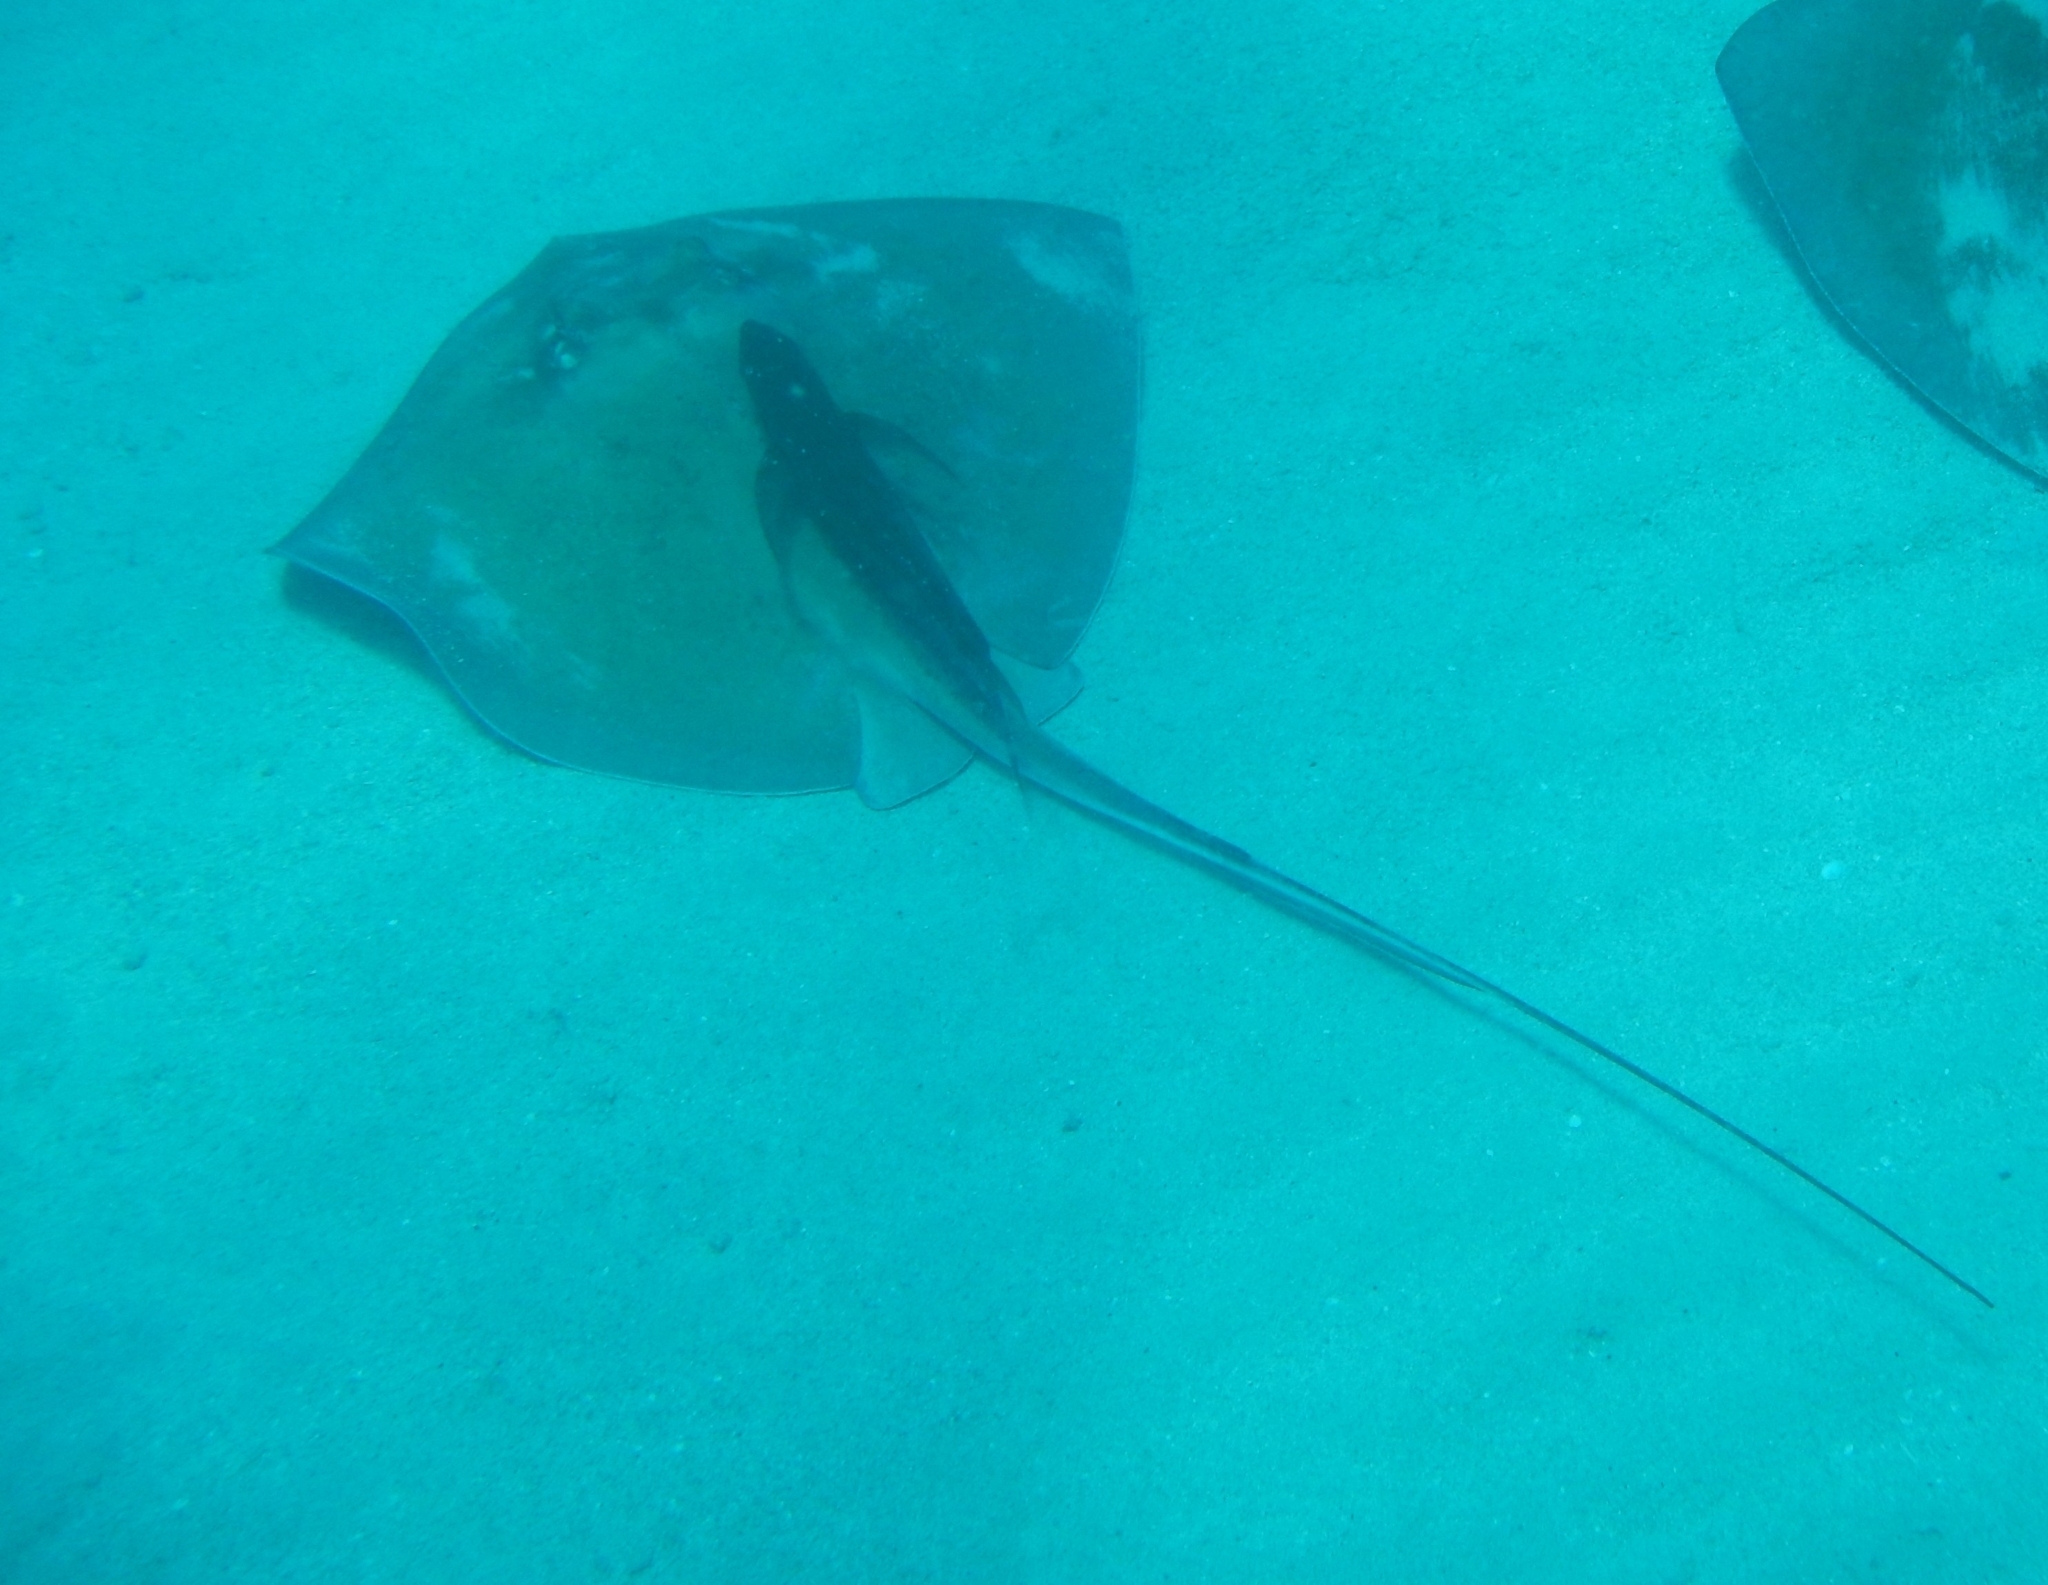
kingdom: Animalia
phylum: Chordata
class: Elasmobranchii
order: Myliobatiformes
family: Dasyatidae
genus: Hypanus
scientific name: Hypanus americanus
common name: Southern stingray
